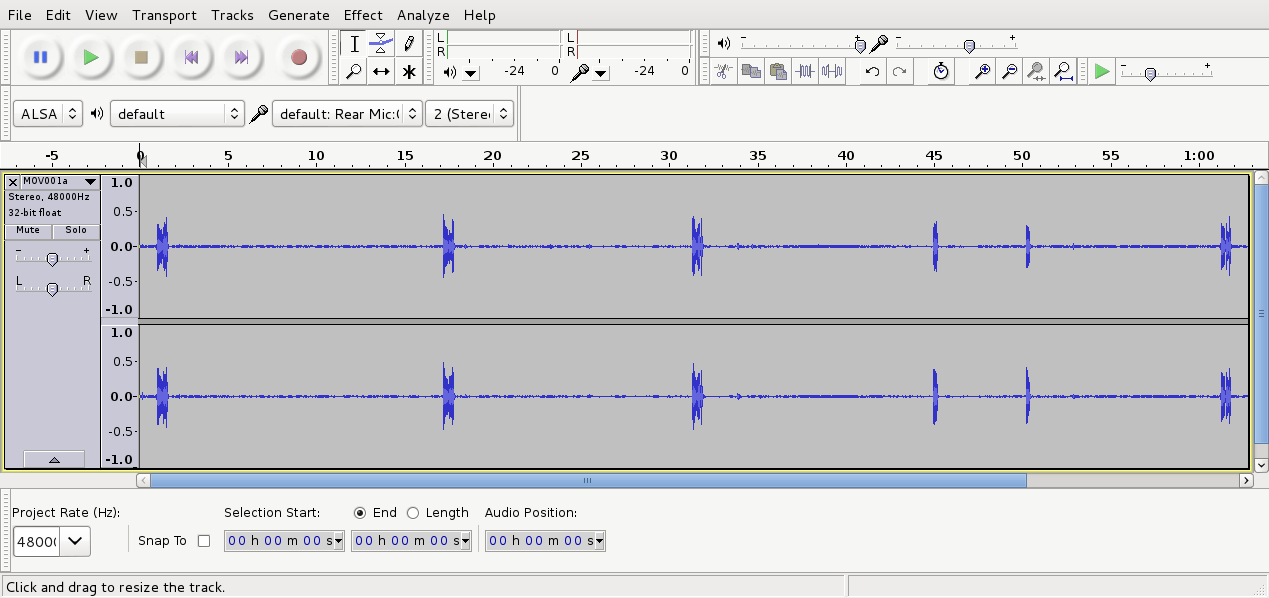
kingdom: Animalia
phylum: Chordata
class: Aves
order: Passeriformes
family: Notiomystidae
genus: Notiomystis
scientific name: Notiomystis cincta
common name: Stitchbird
